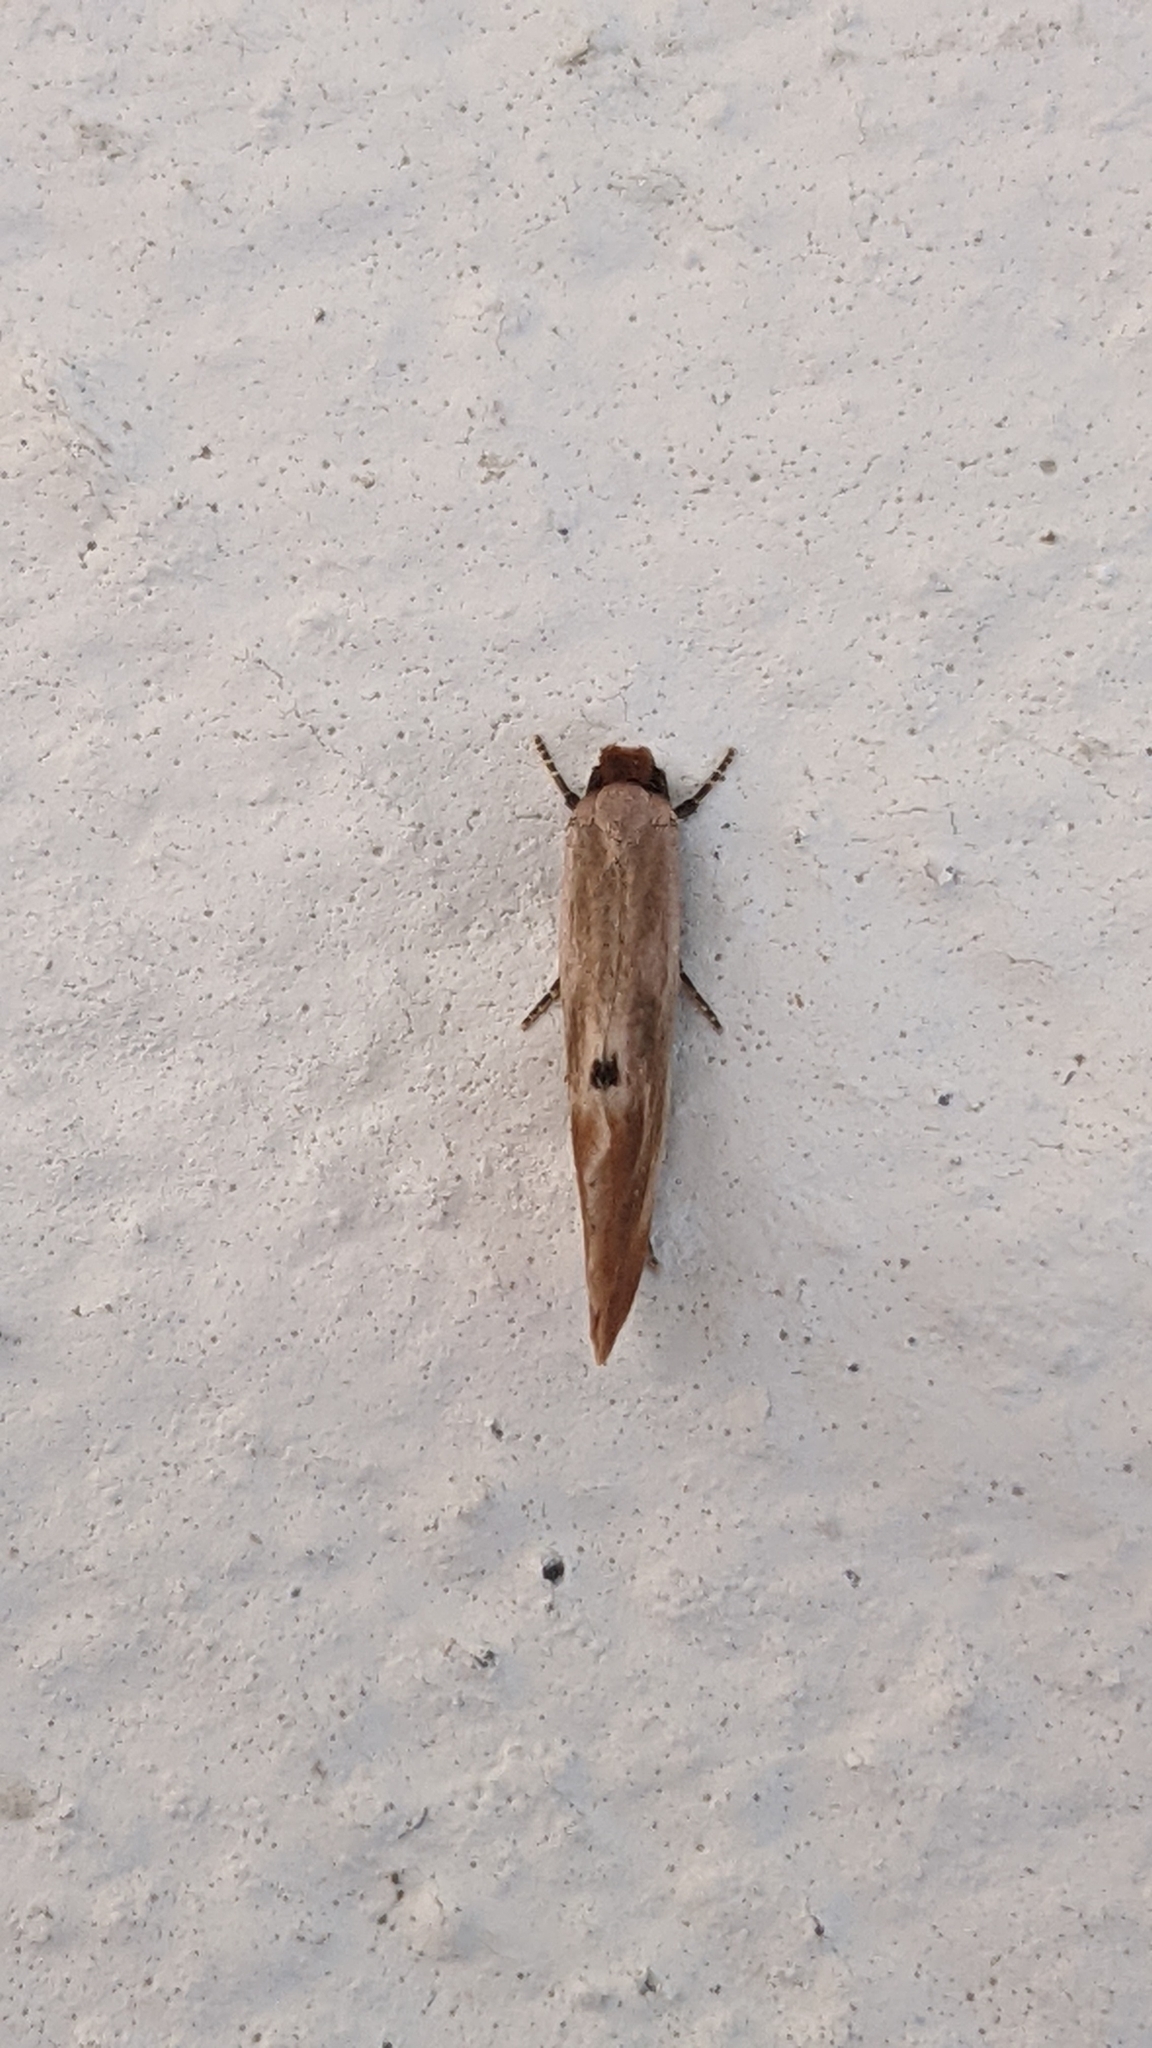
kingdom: Animalia
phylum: Arthropoda
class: Insecta
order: Lepidoptera
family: Tineidae
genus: Tinea
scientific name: Tinea semifulvella
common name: Fulvous clothes
